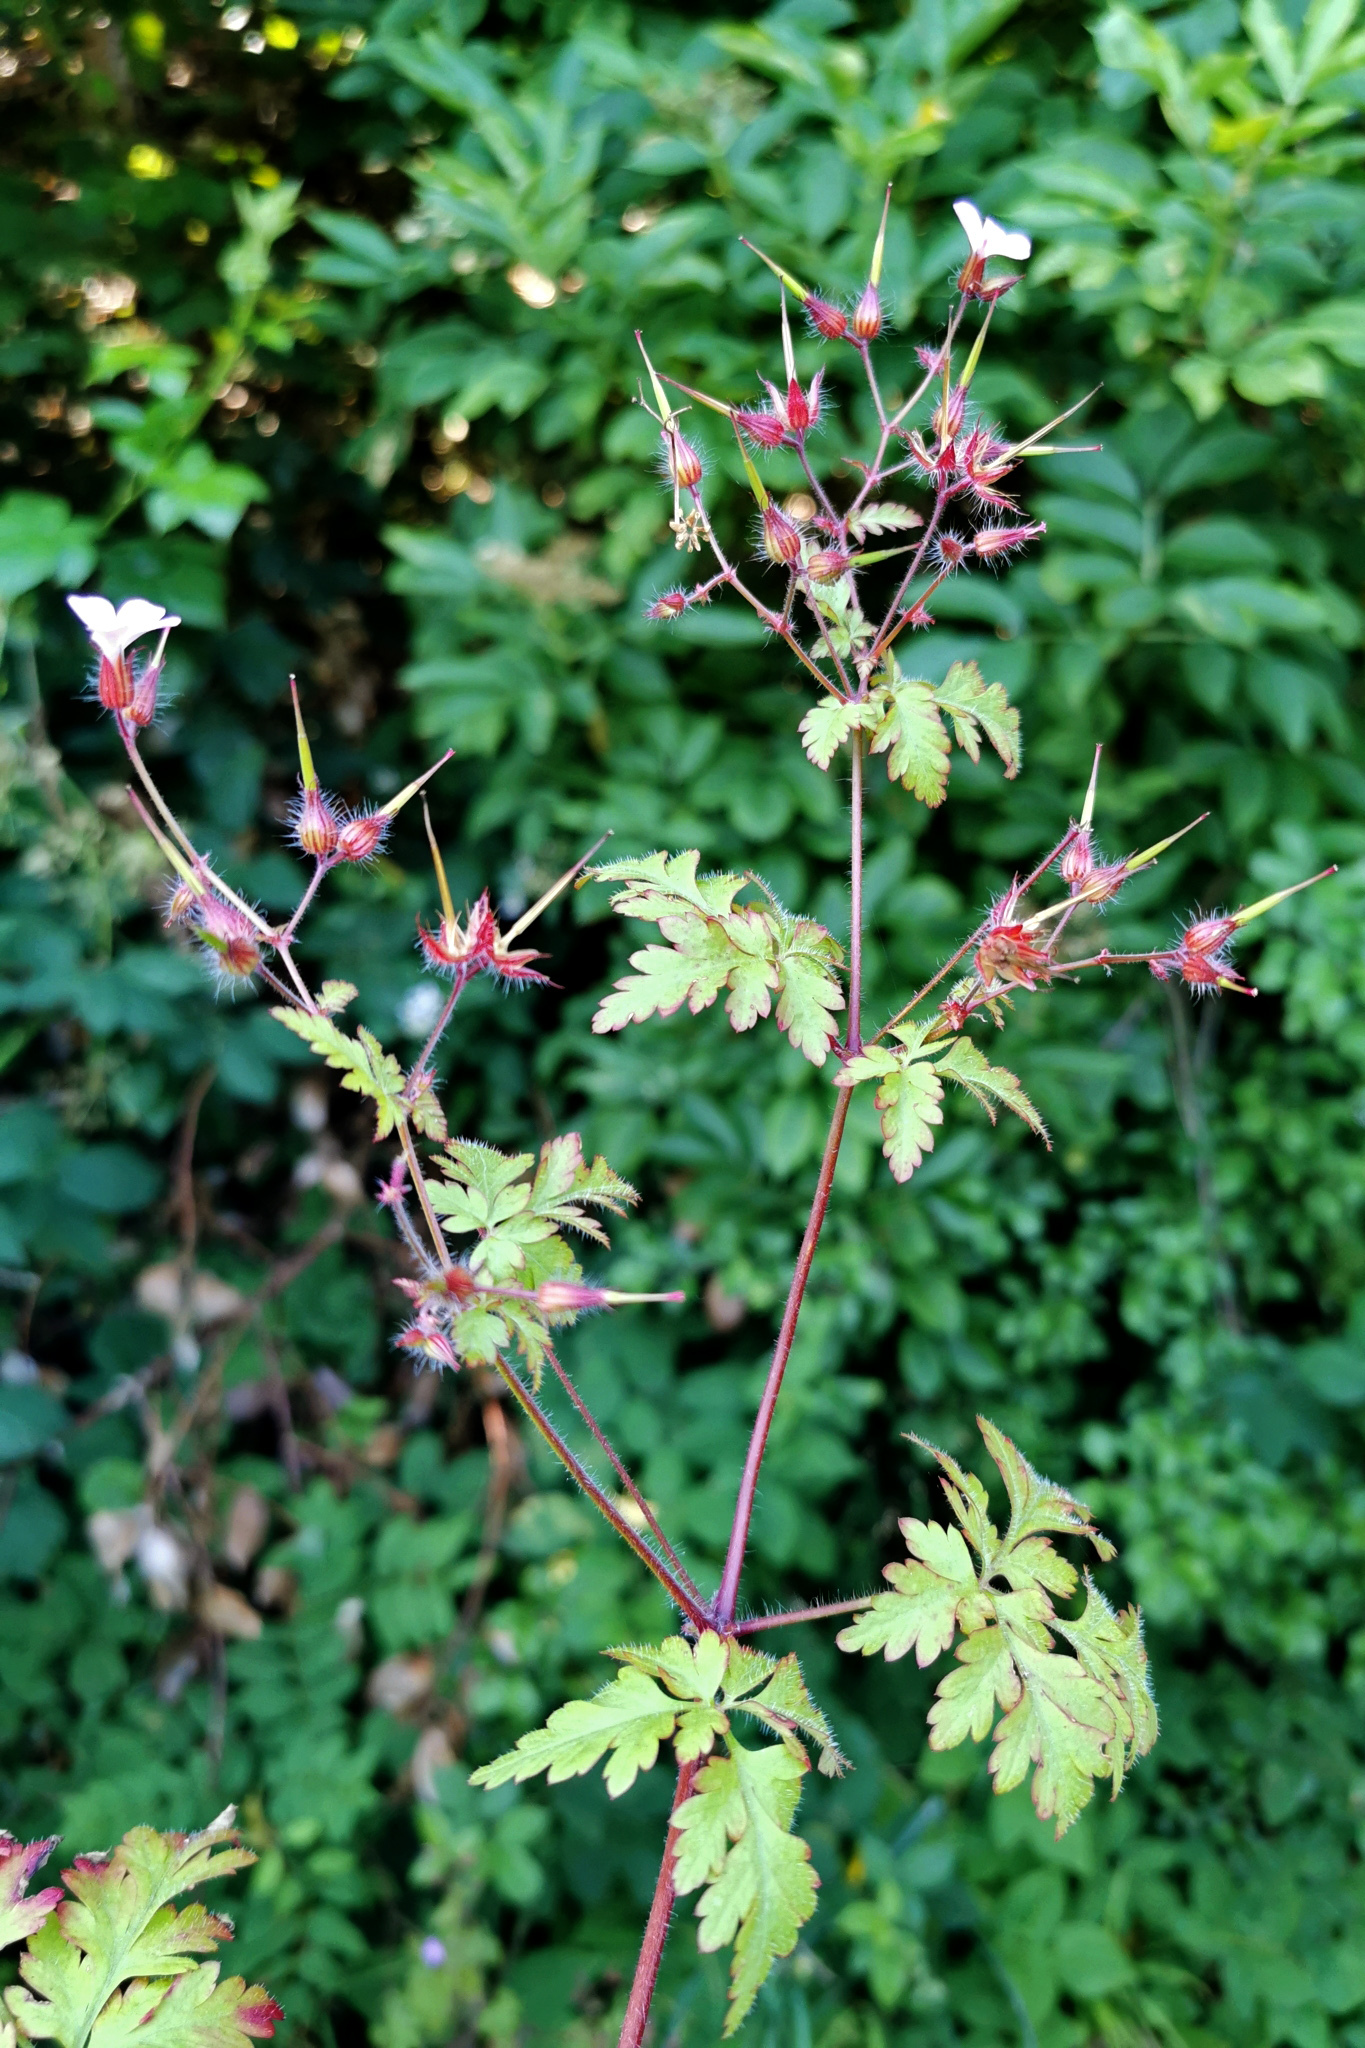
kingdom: Plantae
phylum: Tracheophyta
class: Magnoliopsida
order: Geraniales
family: Geraniaceae
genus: Geranium
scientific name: Geranium robertianum
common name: Herb-robert
